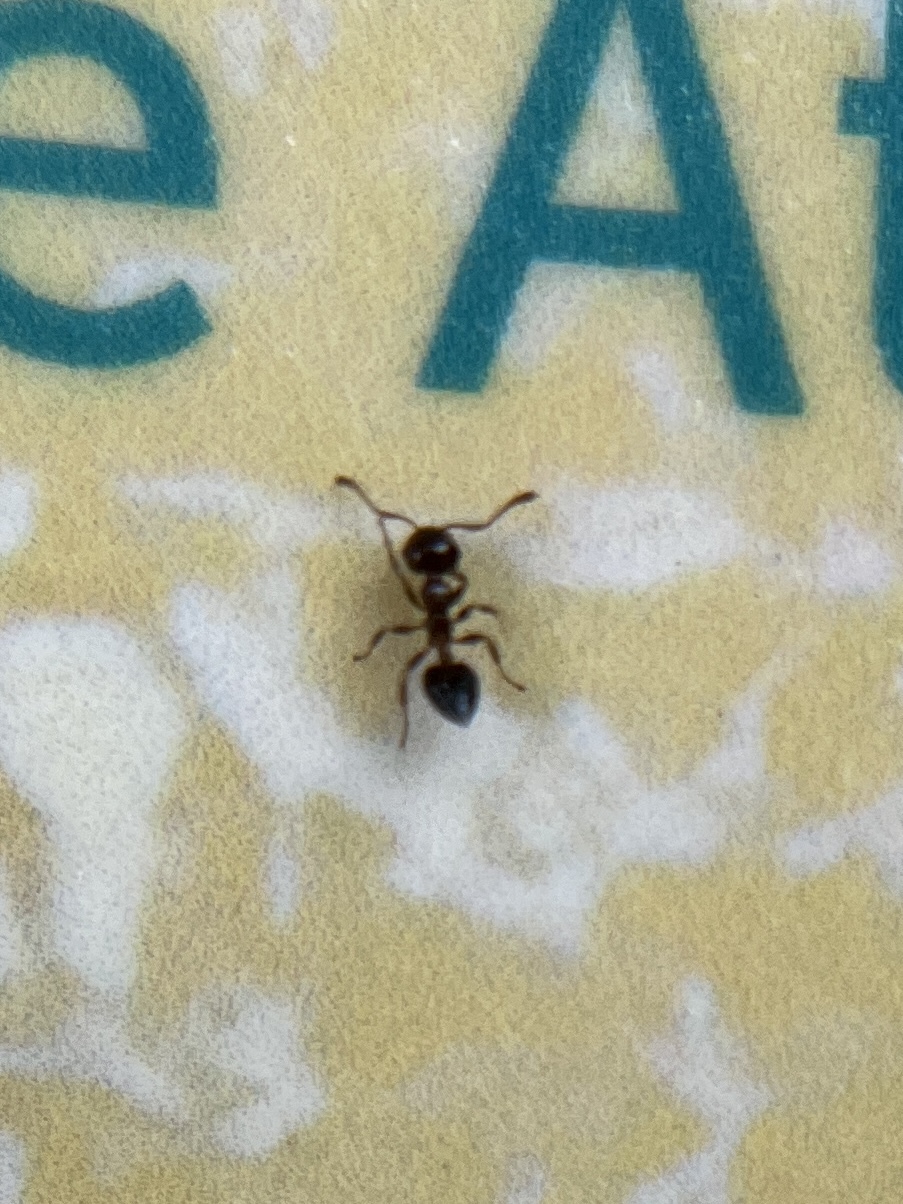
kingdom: Animalia
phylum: Arthropoda
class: Insecta
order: Hymenoptera
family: Formicidae
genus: Crematogaster
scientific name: Crematogaster
